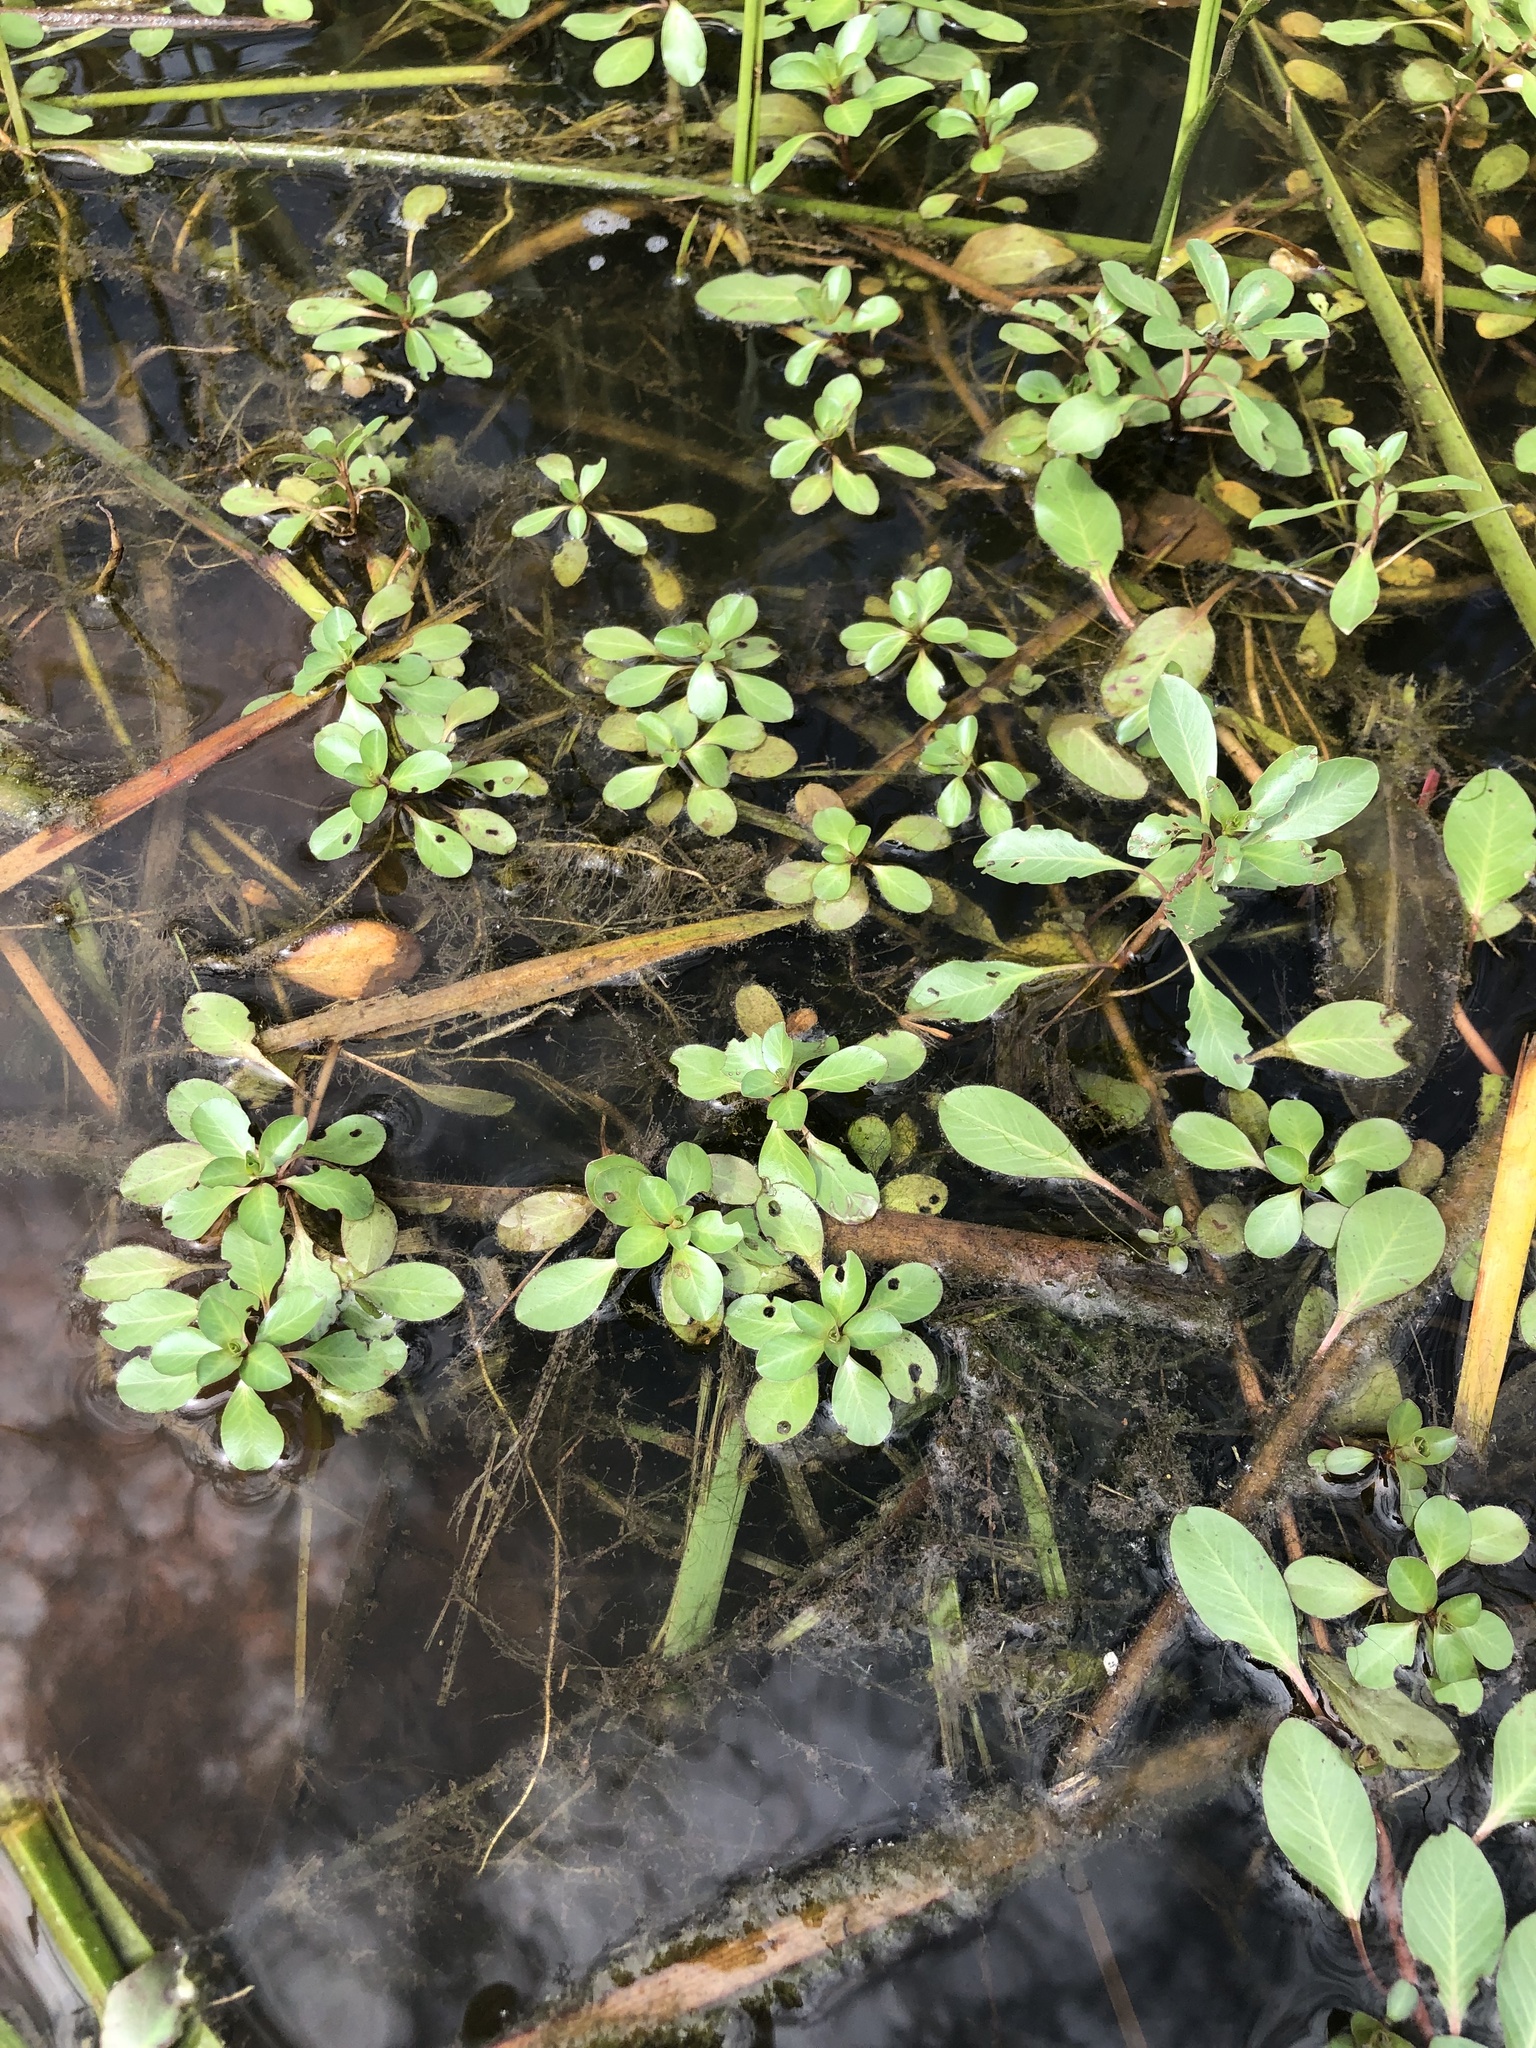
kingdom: Plantae
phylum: Tracheophyta
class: Magnoliopsida
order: Myrtales
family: Onagraceae
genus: Ludwigia
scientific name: Ludwigia peploides
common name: Floating primrose-willow
